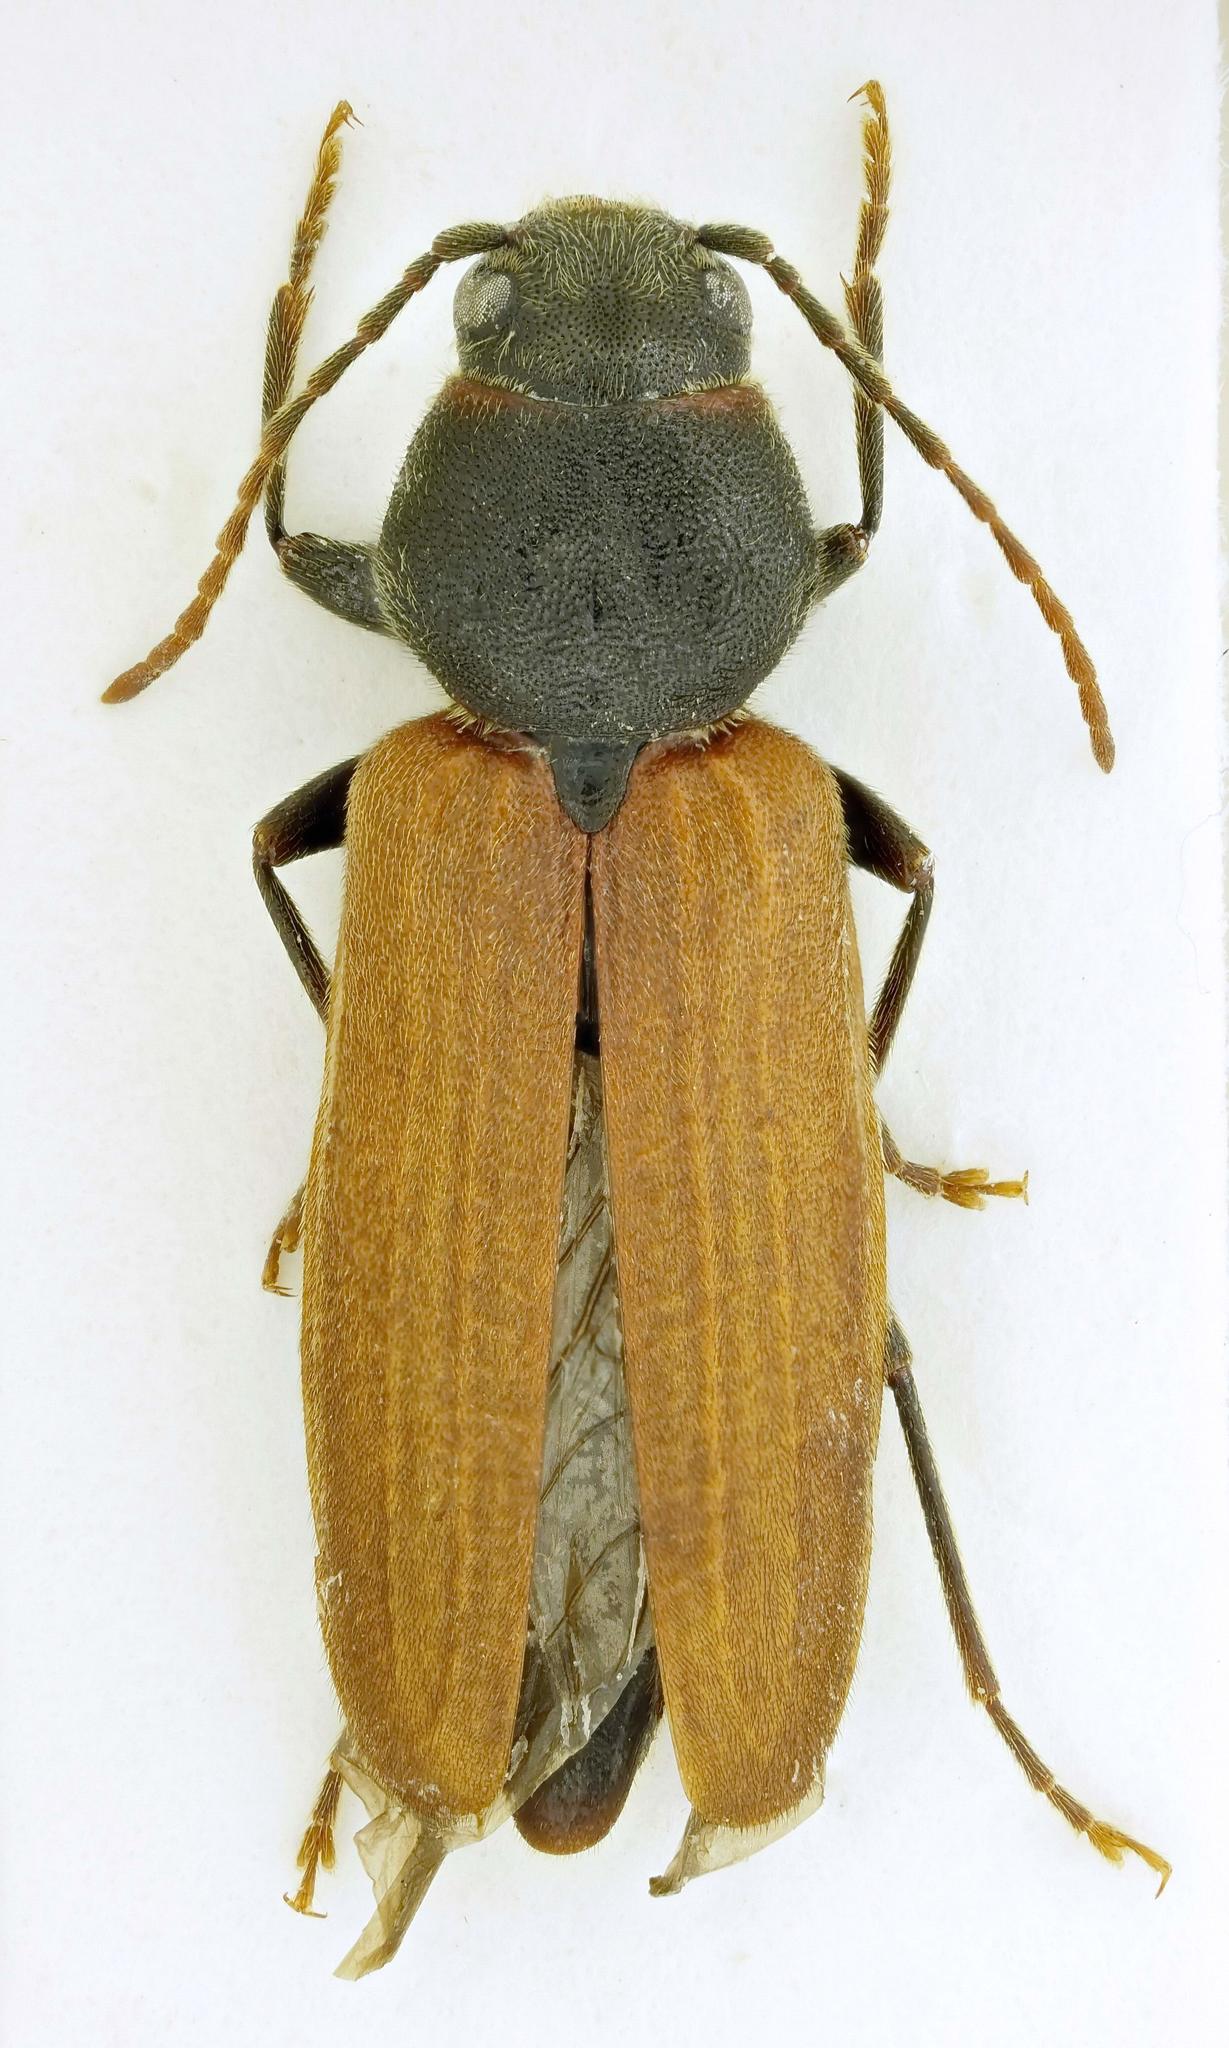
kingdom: Animalia
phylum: Arthropoda
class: Insecta
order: Coleoptera
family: Cerambycidae
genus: Asemum
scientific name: Asemum tenuicorne
